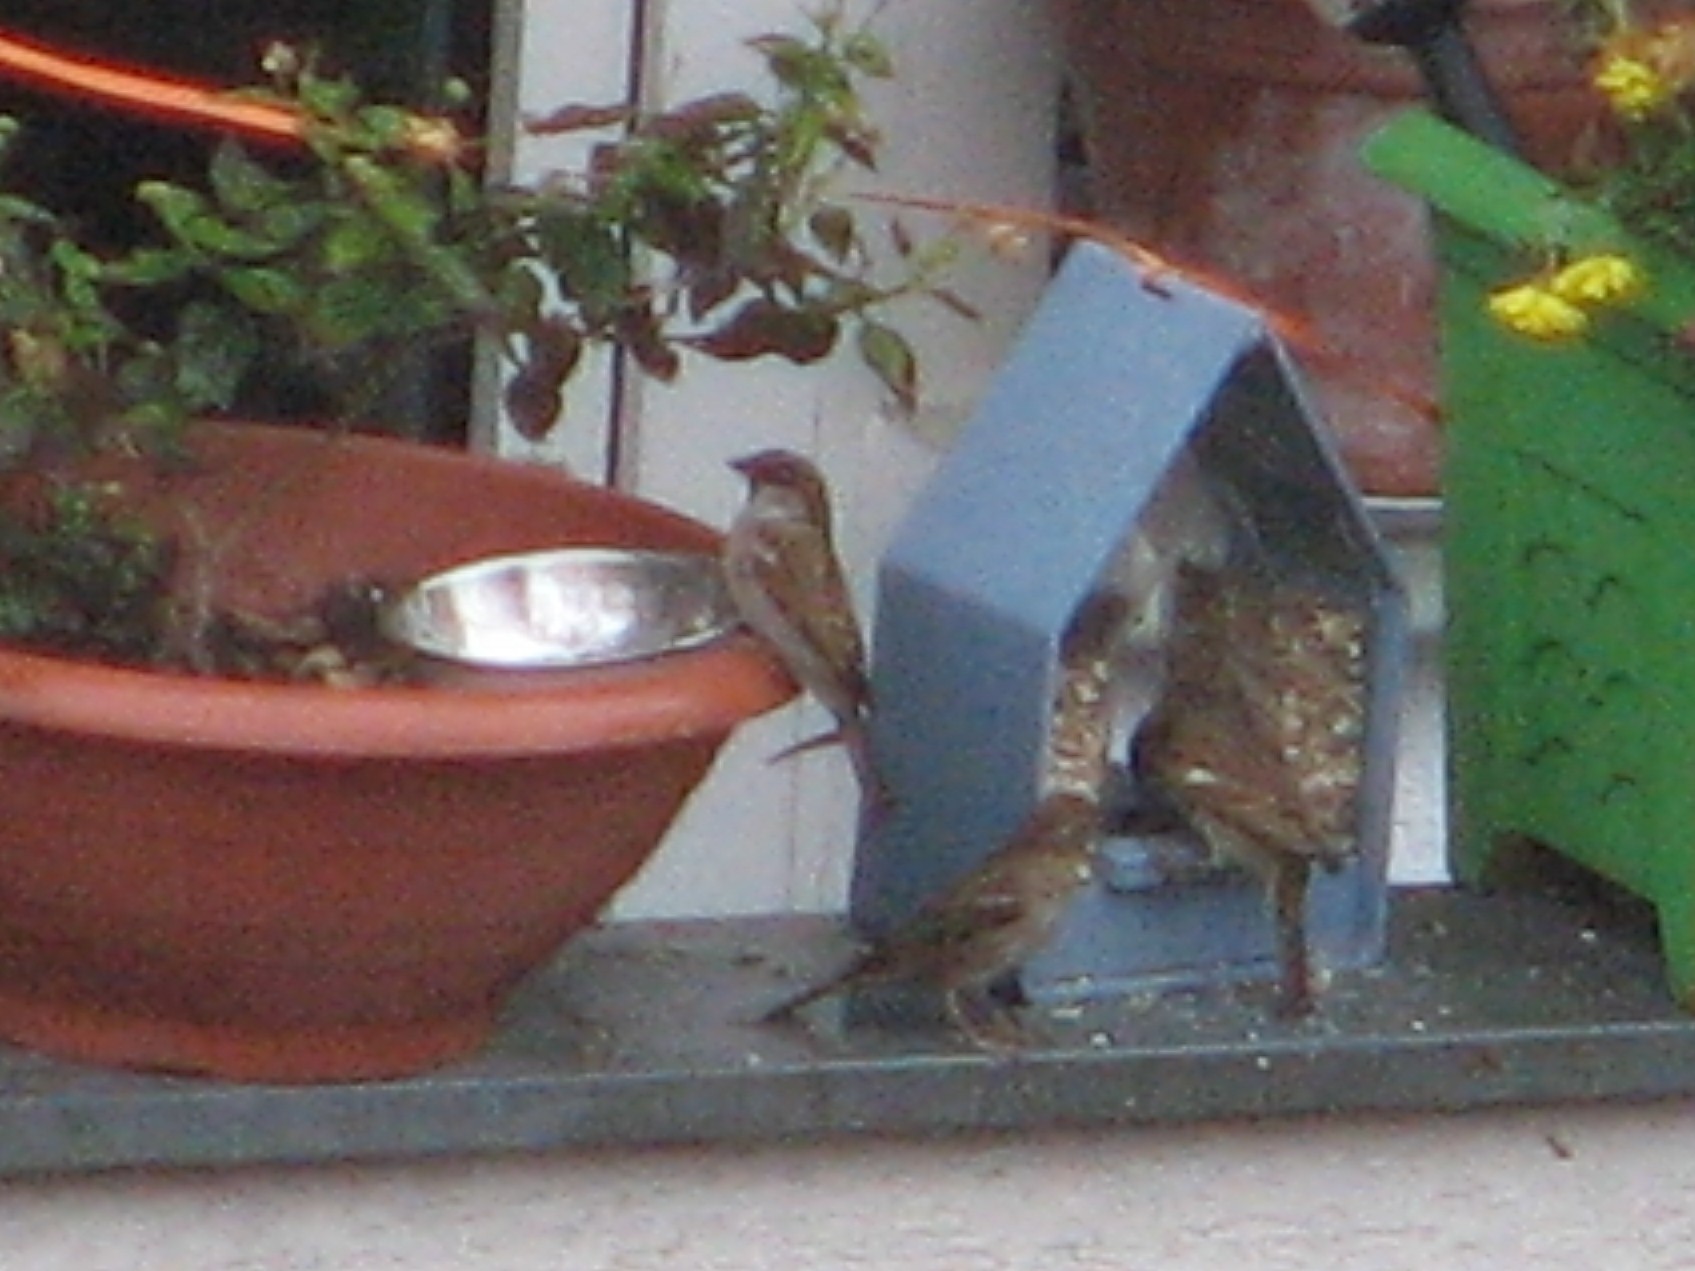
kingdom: Animalia
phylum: Chordata
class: Aves
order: Passeriformes
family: Passeridae
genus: Passer
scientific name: Passer domesticus
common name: House sparrow
